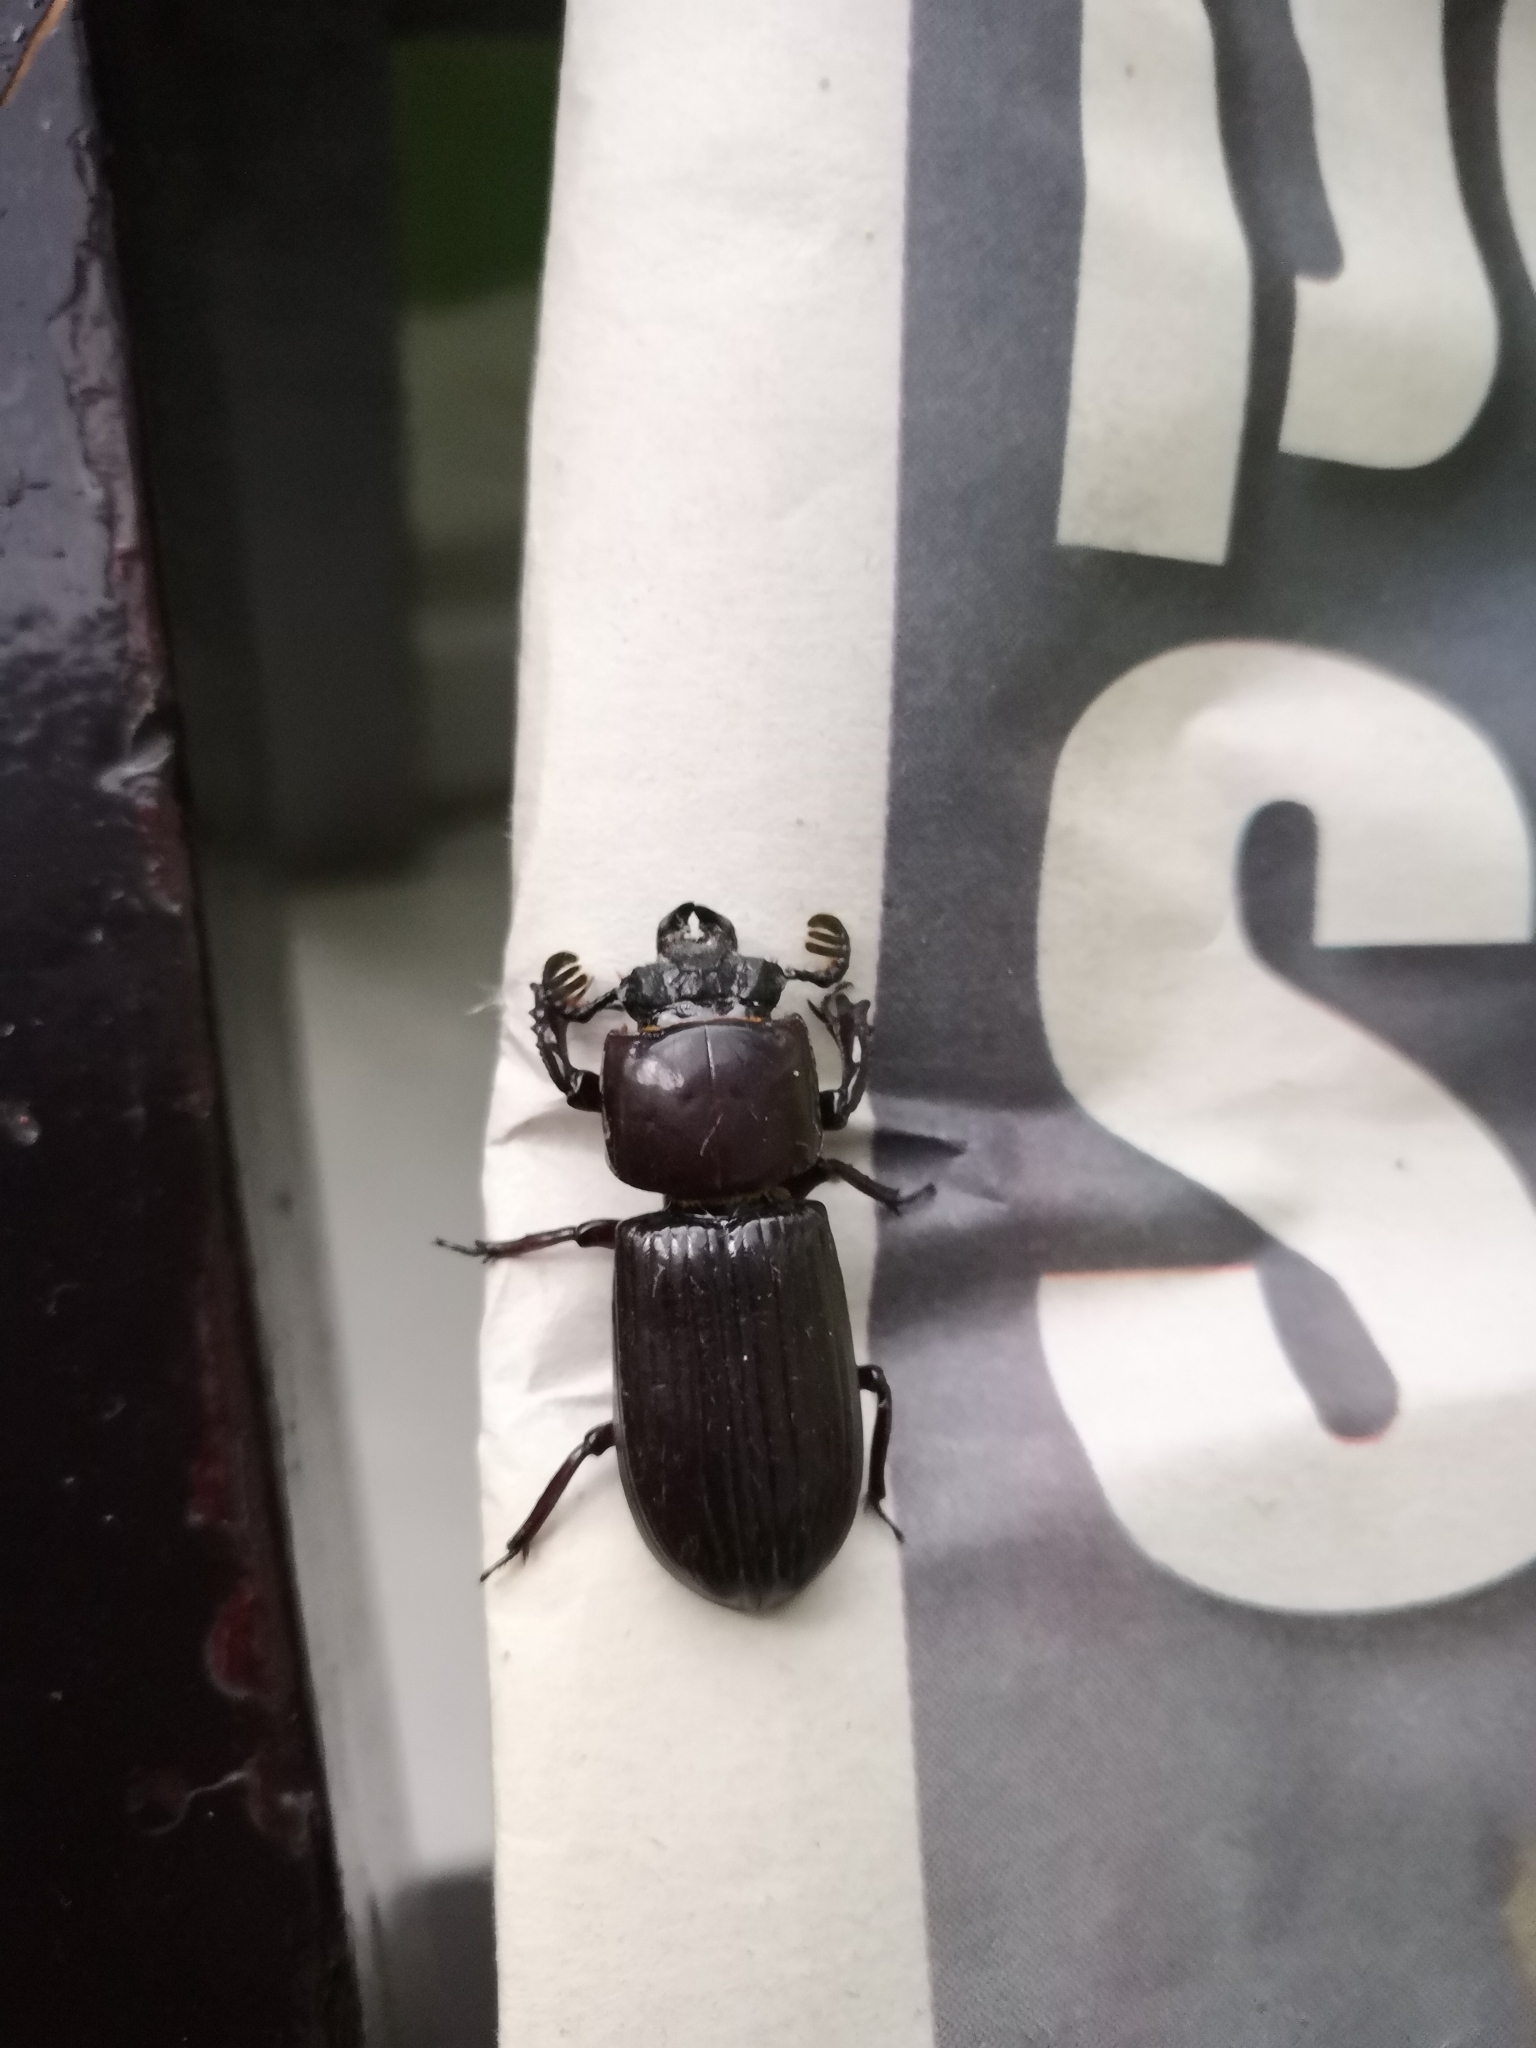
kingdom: Animalia
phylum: Arthropoda
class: Insecta
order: Coleoptera
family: Passalidae
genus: Ptichopus
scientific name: Ptichopus angulatus
